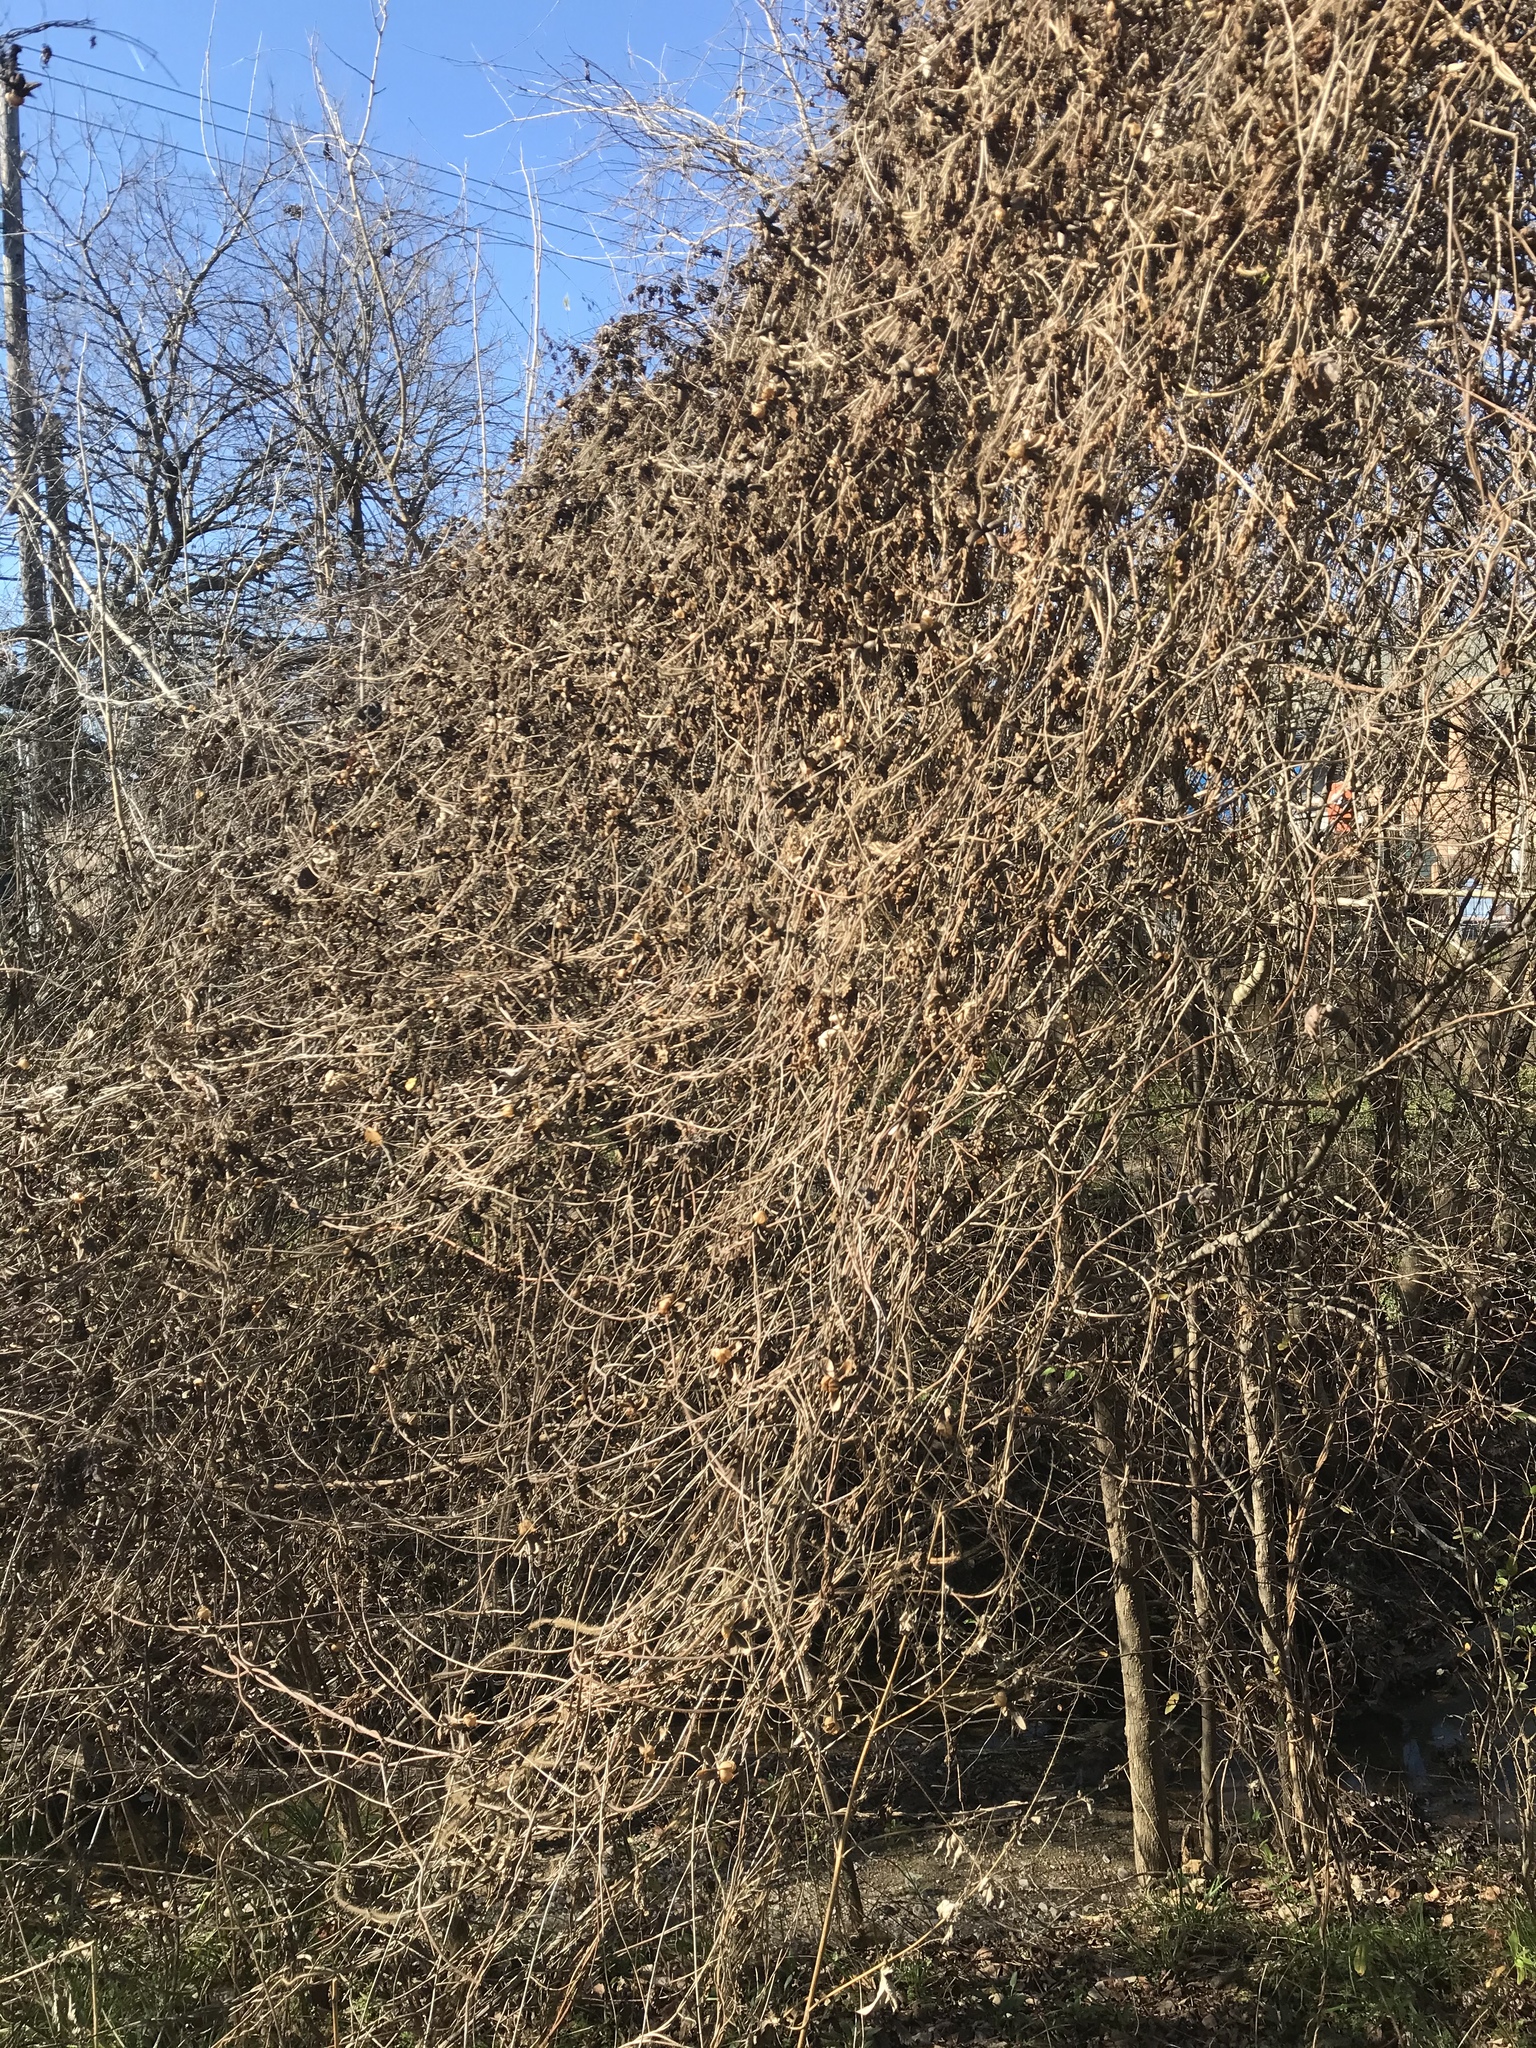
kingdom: Plantae
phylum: Tracheophyta
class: Magnoliopsida
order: Solanales
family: Convolvulaceae
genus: Distimake
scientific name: Distimake dissectus
